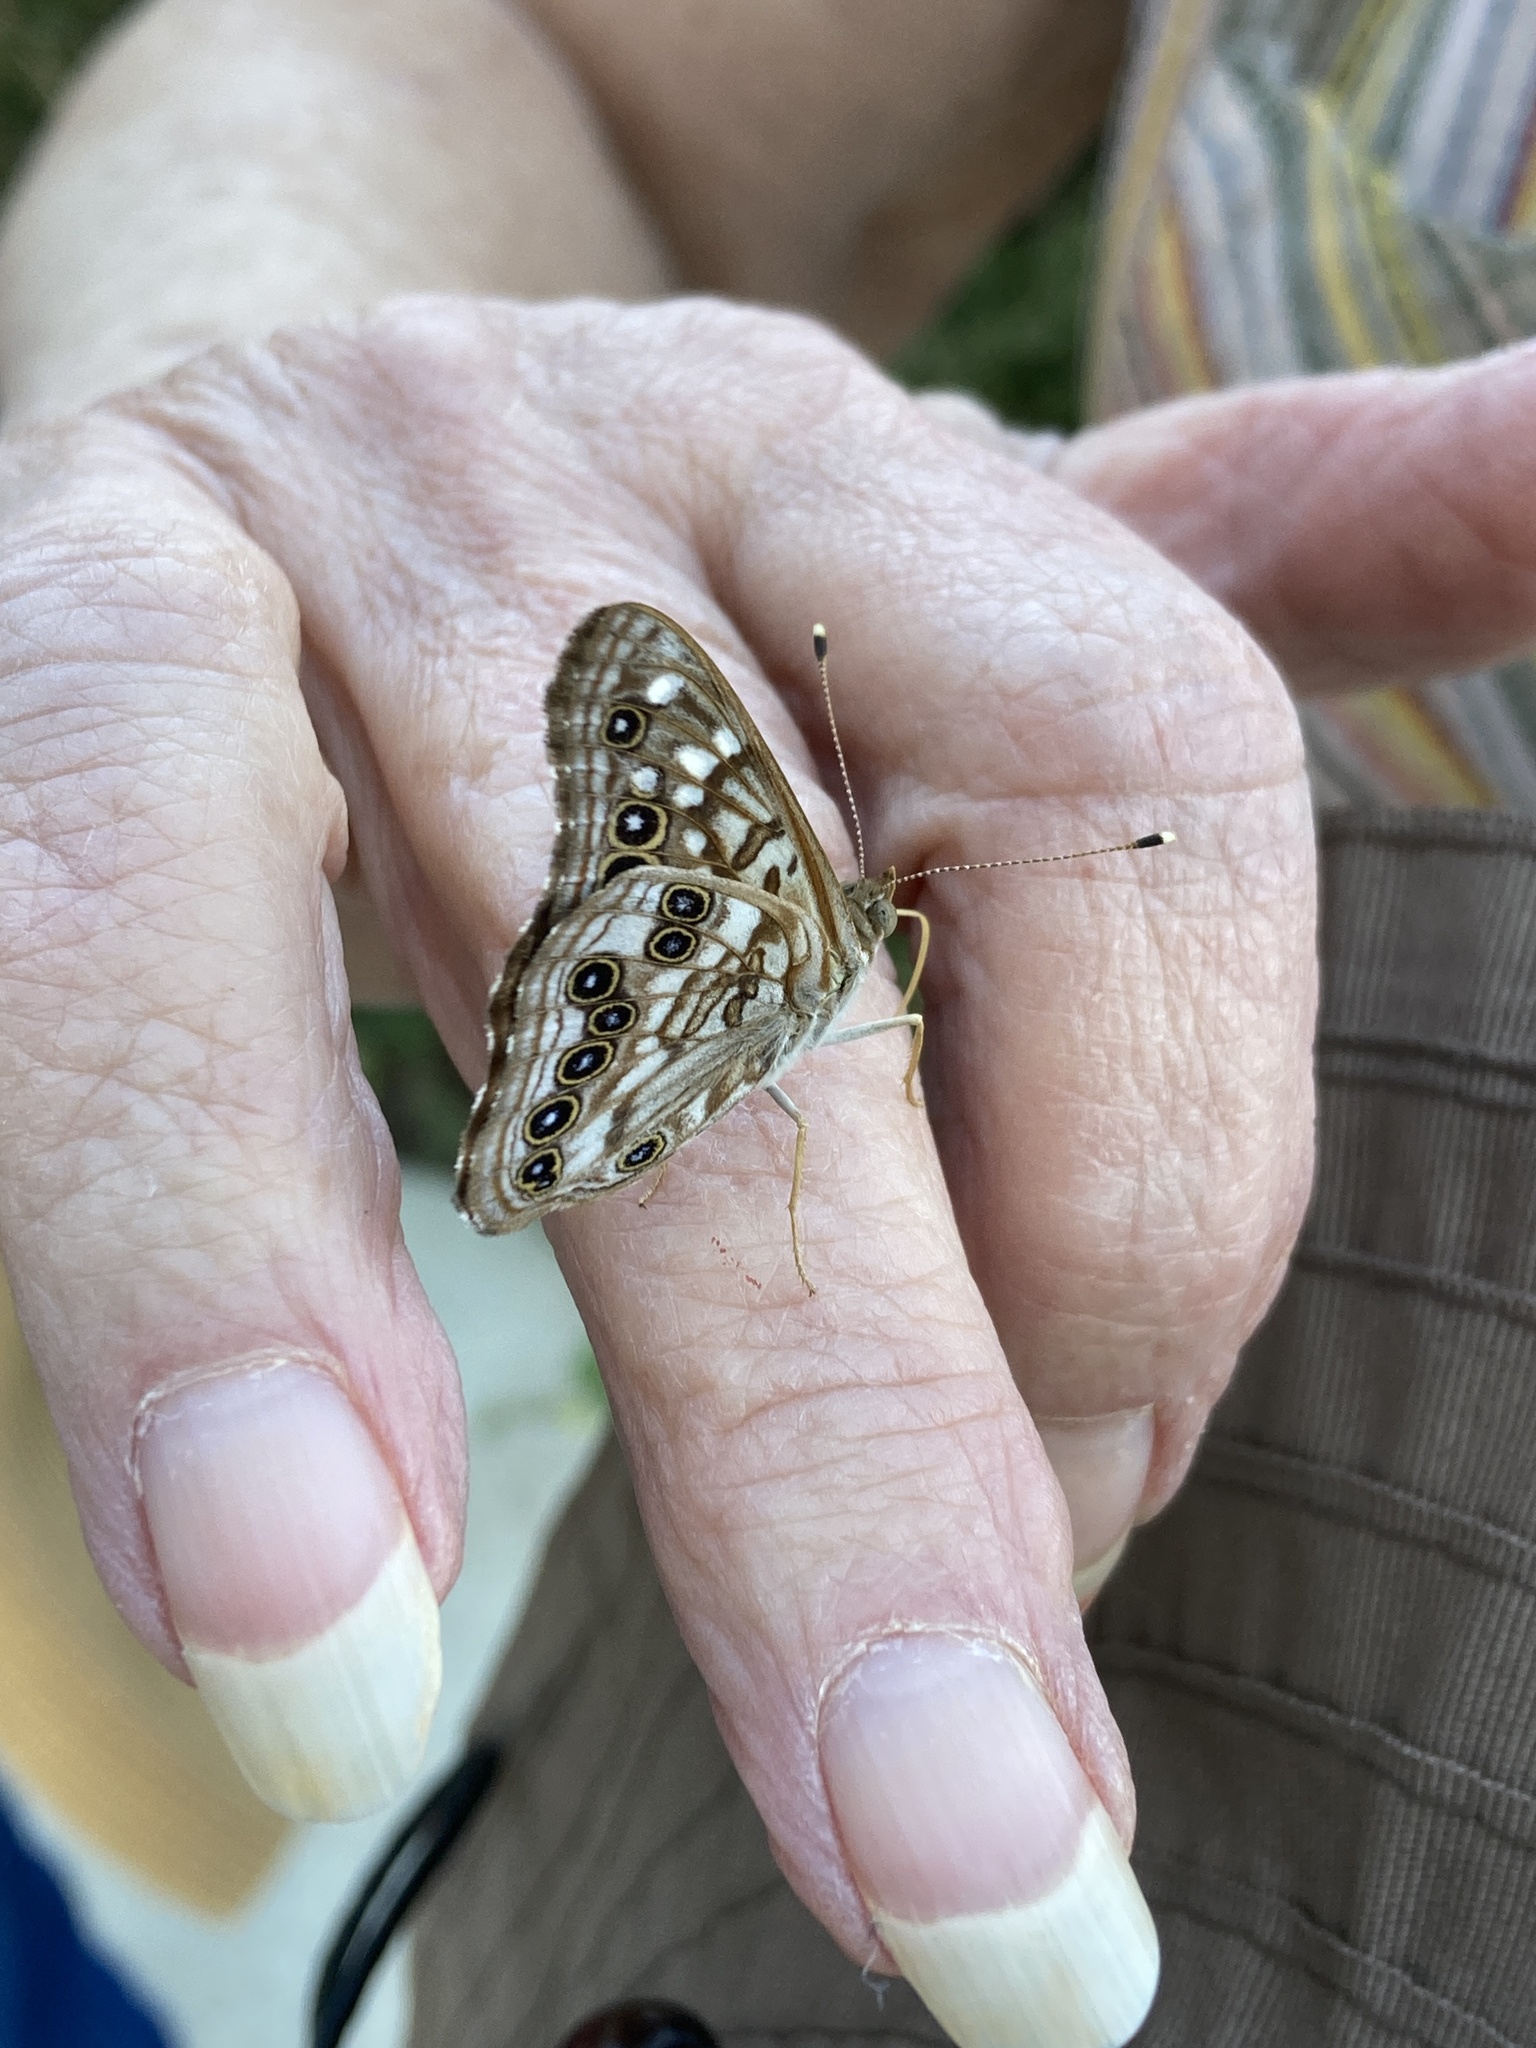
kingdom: Animalia
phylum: Arthropoda
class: Insecta
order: Lepidoptera
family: Nymphalidae
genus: Asterocampa
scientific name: Asterocampa celtis
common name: Hackberry emperor
